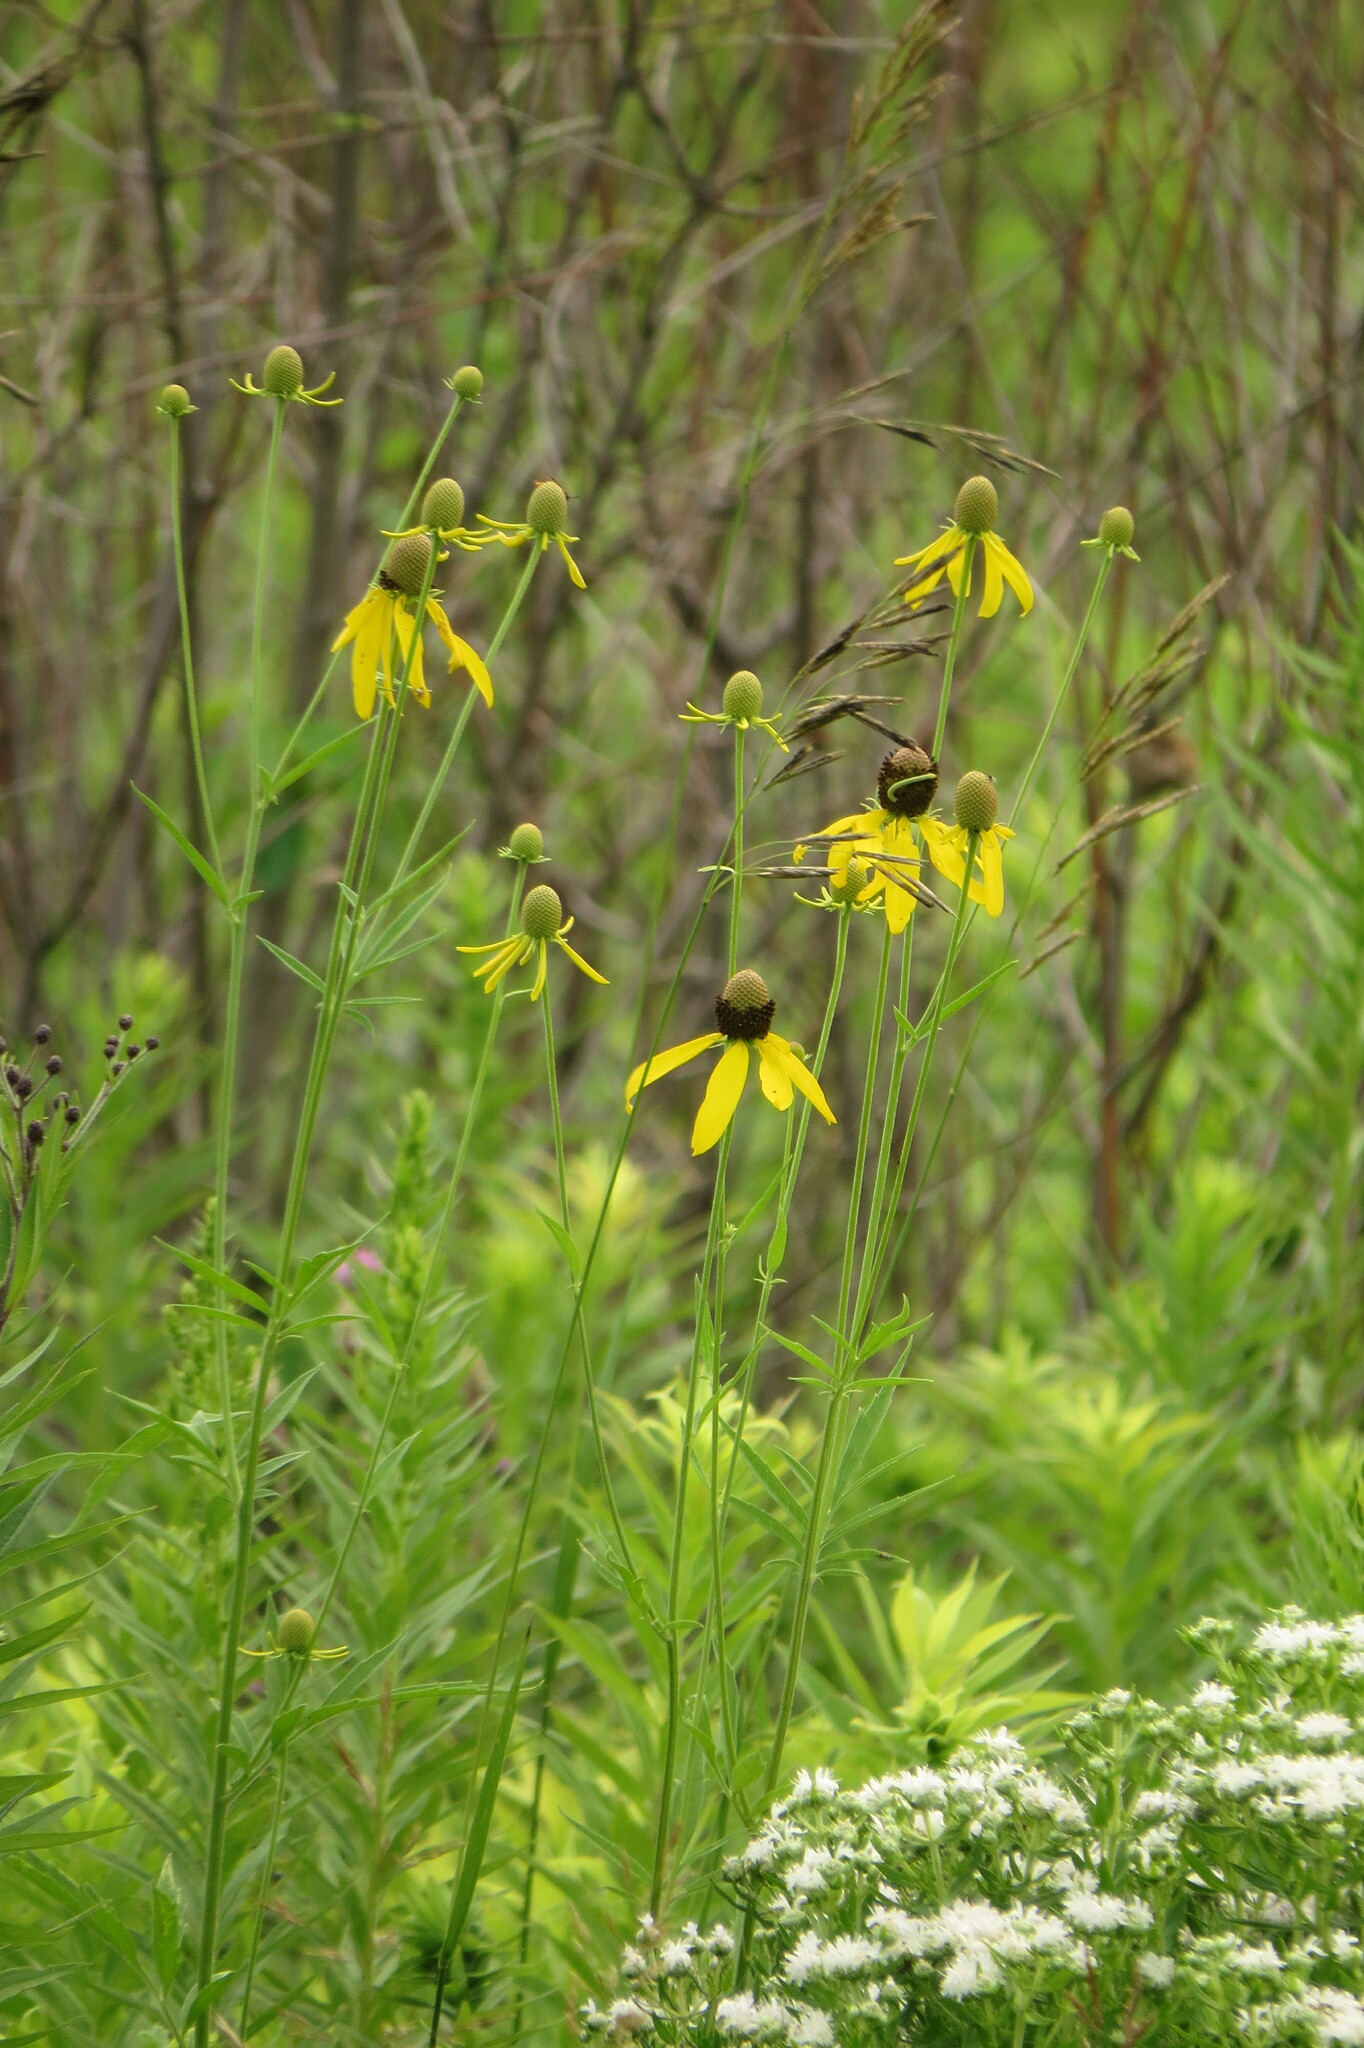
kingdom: Plantae
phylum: Tracheophyta
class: Magnoliopsida
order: Asterales
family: Asteraceae
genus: Ratibida
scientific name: Ratibida pinnata
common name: Drooping prairie-coneflower
